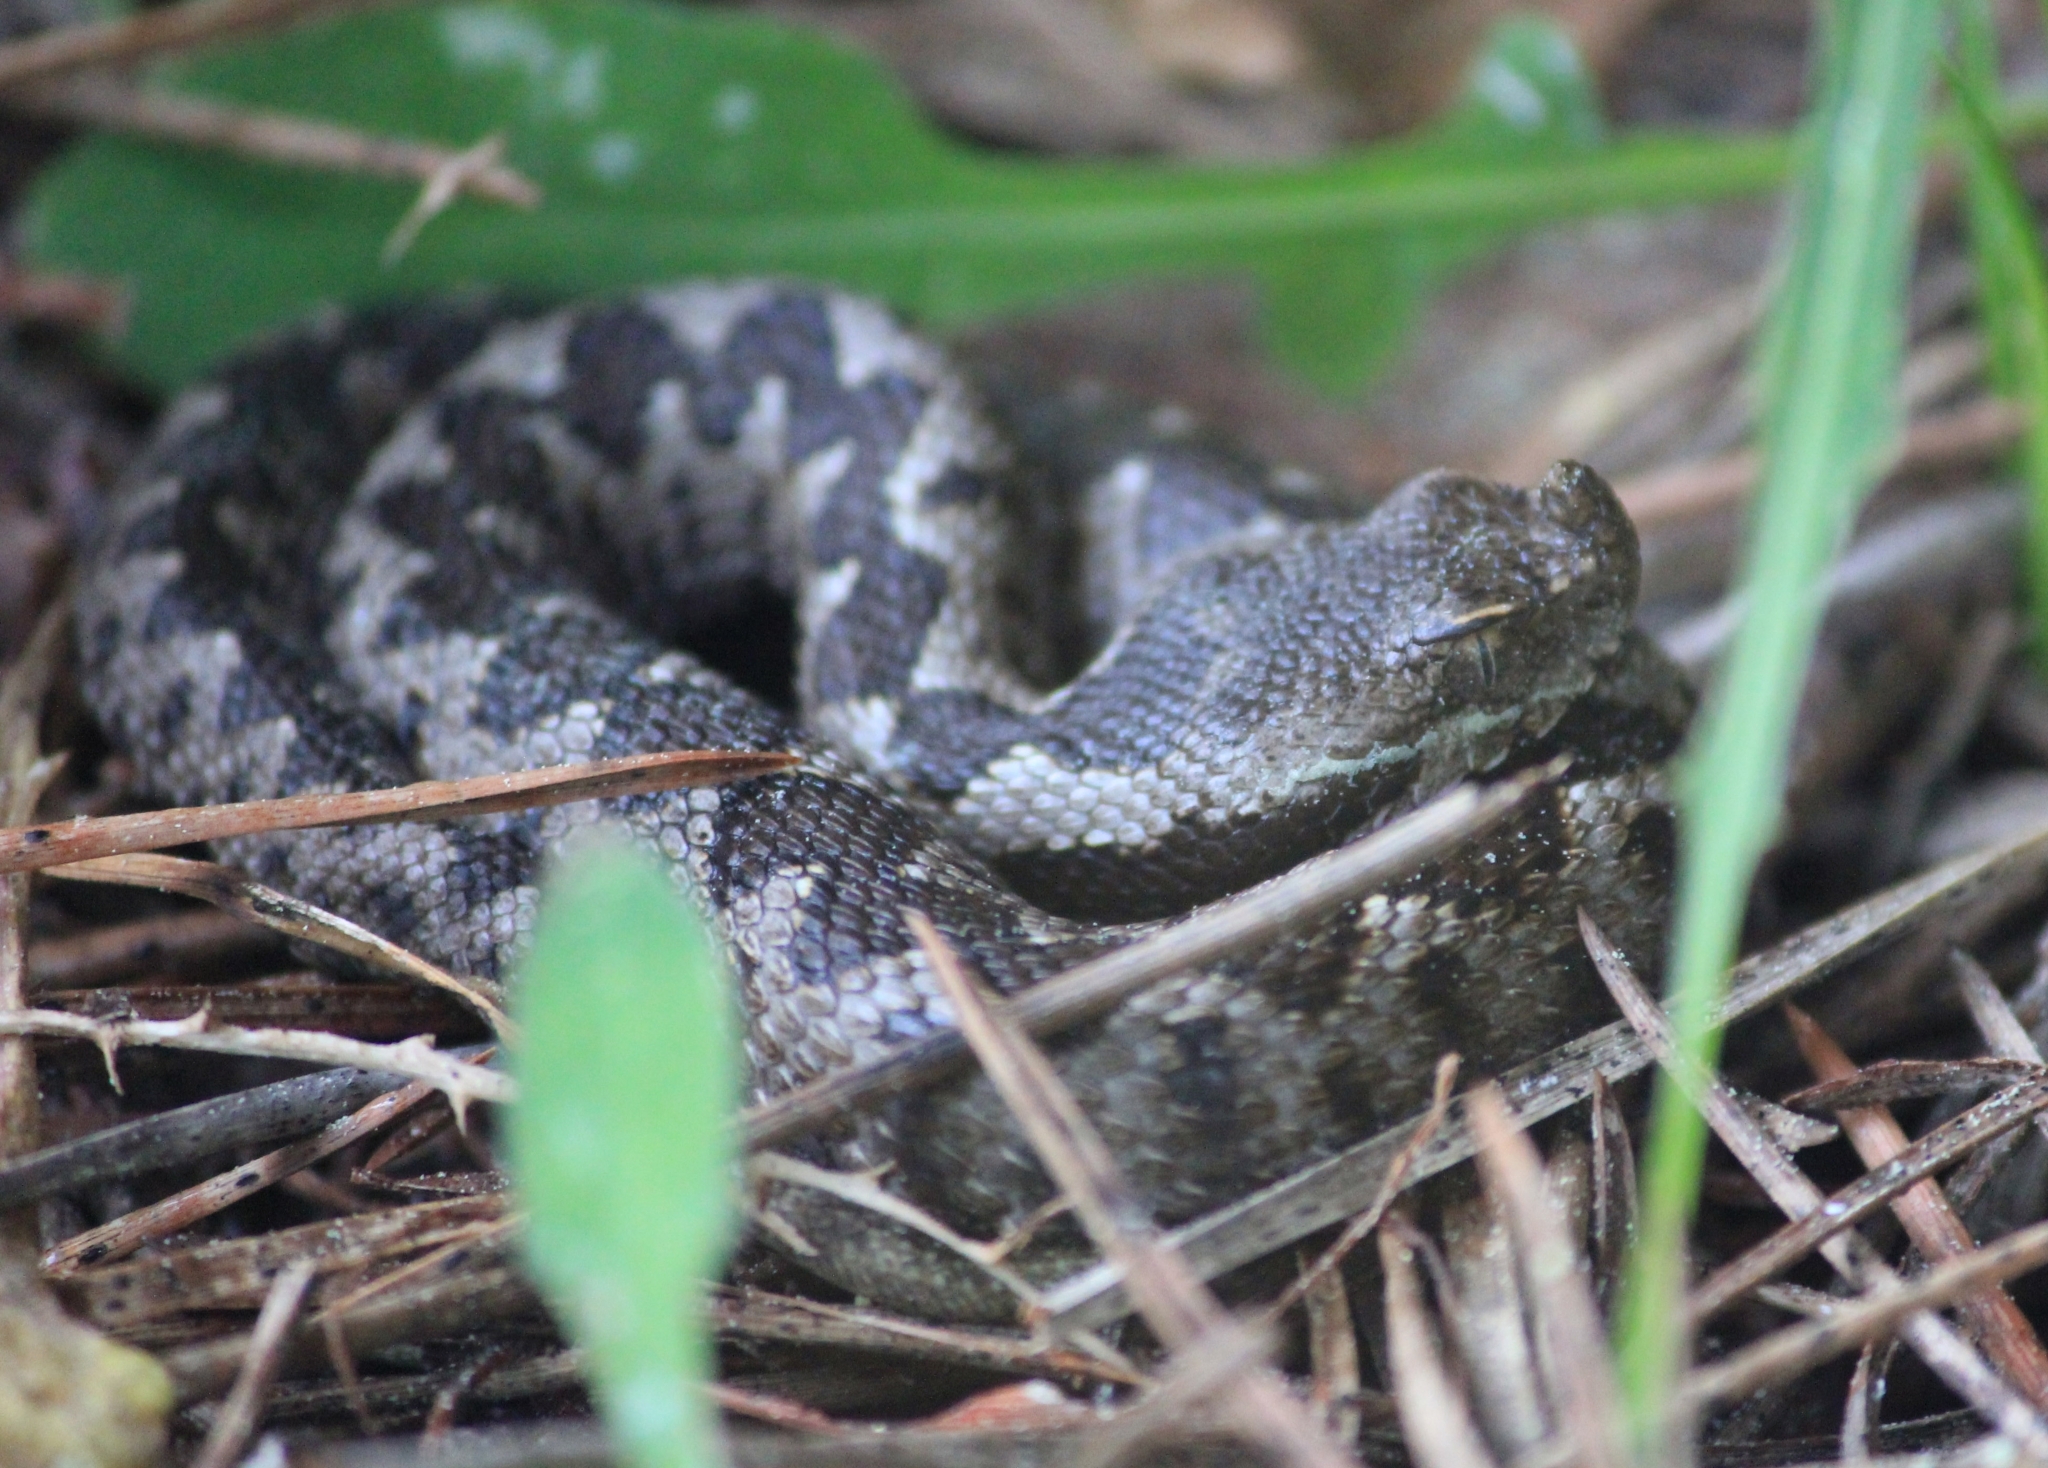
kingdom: Animalia
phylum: Chordata
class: Squamata
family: Viperidae
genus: Vipera
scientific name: Vipera ammodytes
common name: Sand viper
